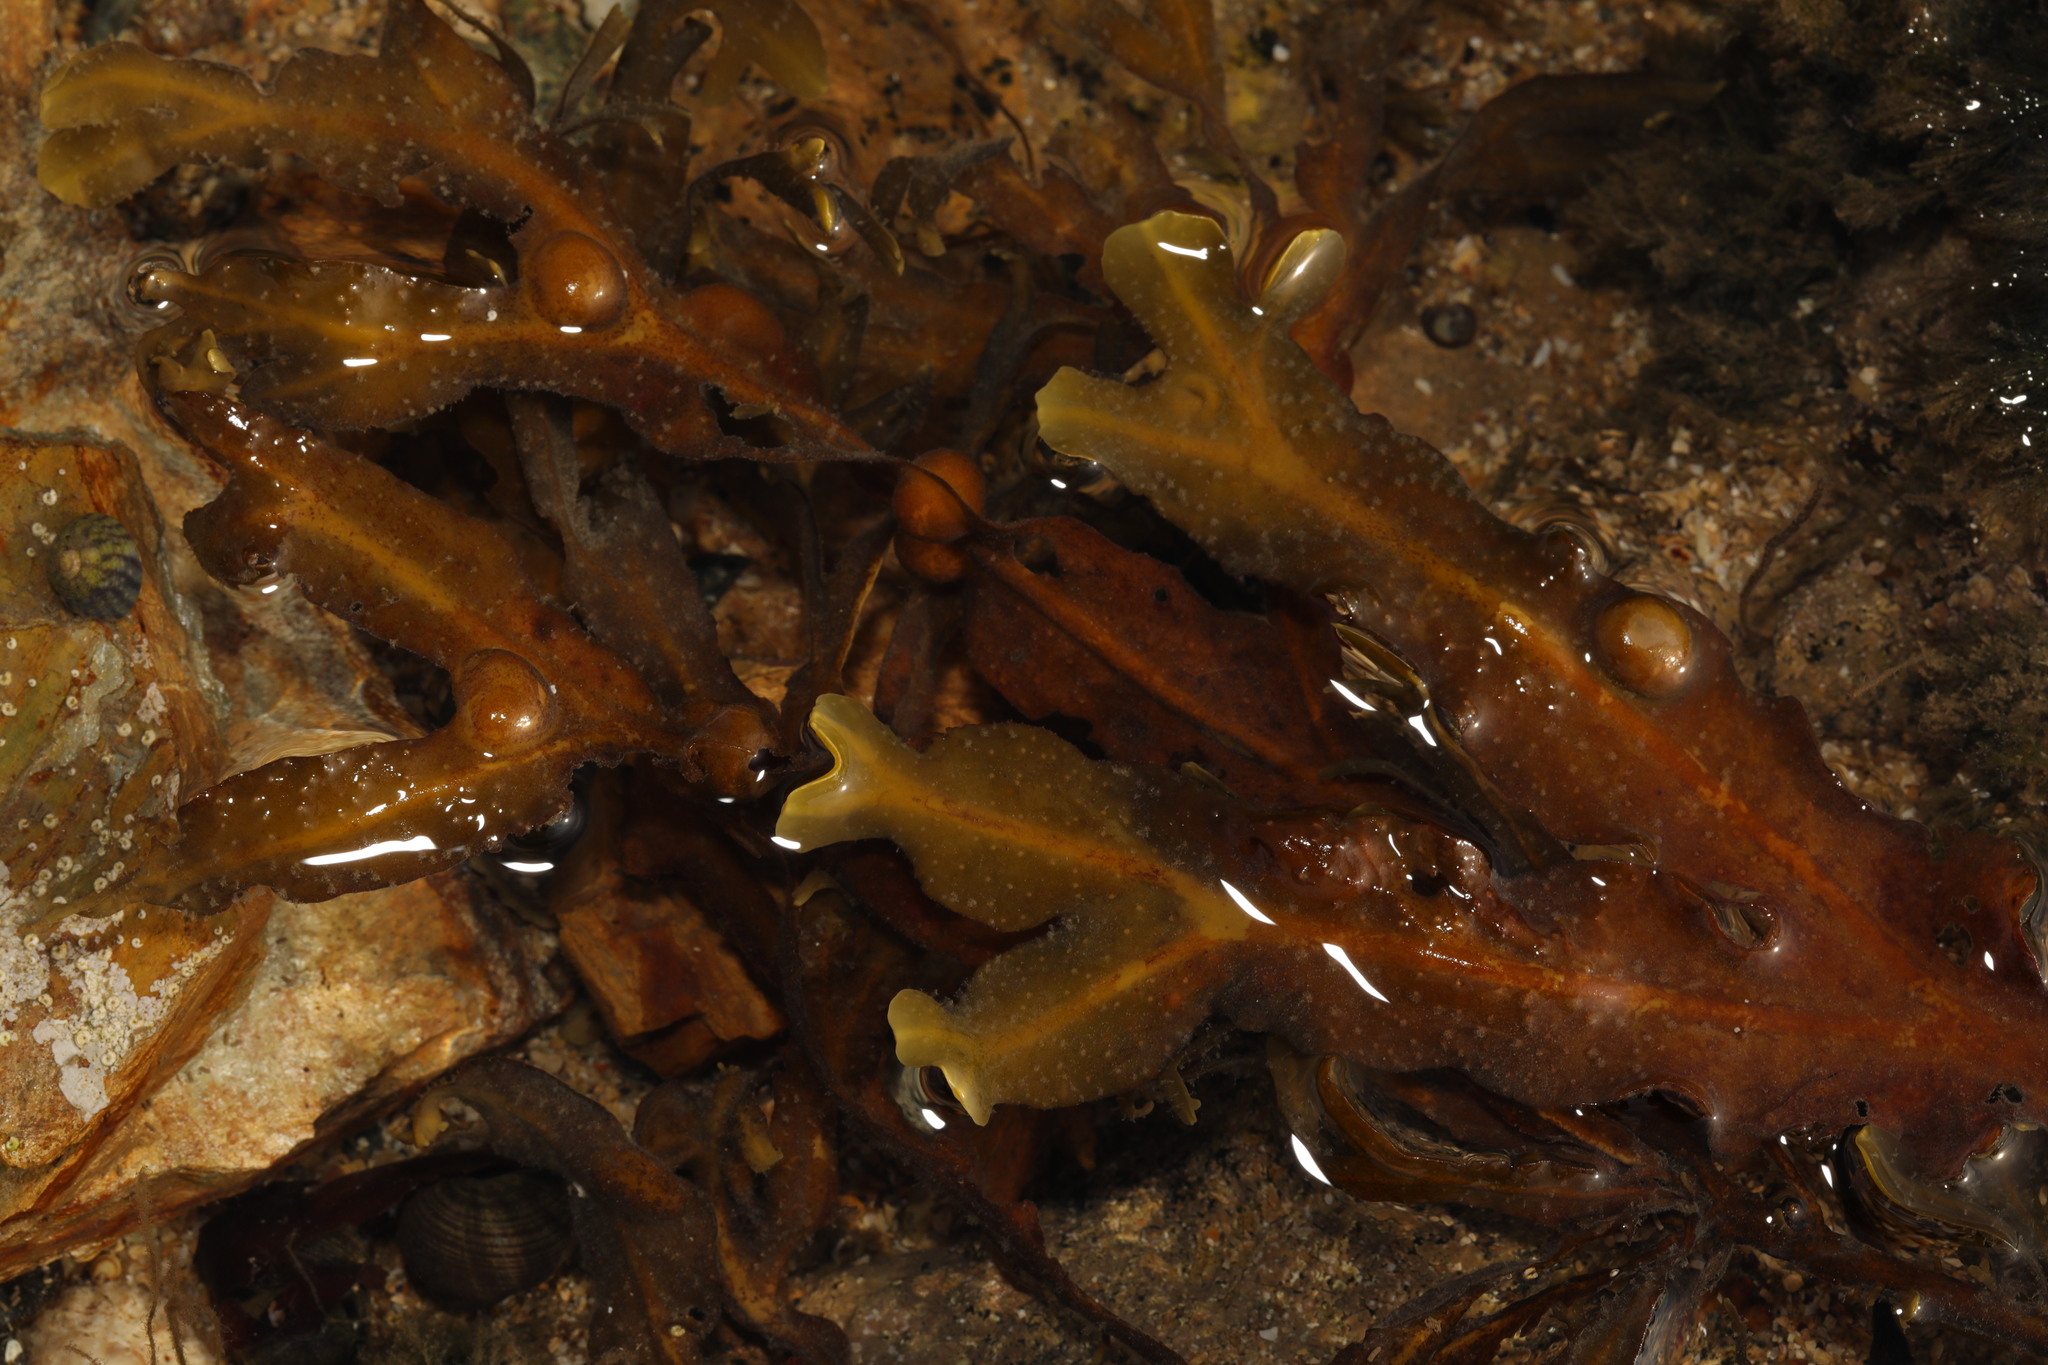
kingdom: Chromista
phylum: Ochrophyta
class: Phaeophyceae
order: Fucales
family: Fucaceae
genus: Fucus
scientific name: Fucus vesiculosus
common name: Bladder wrack
